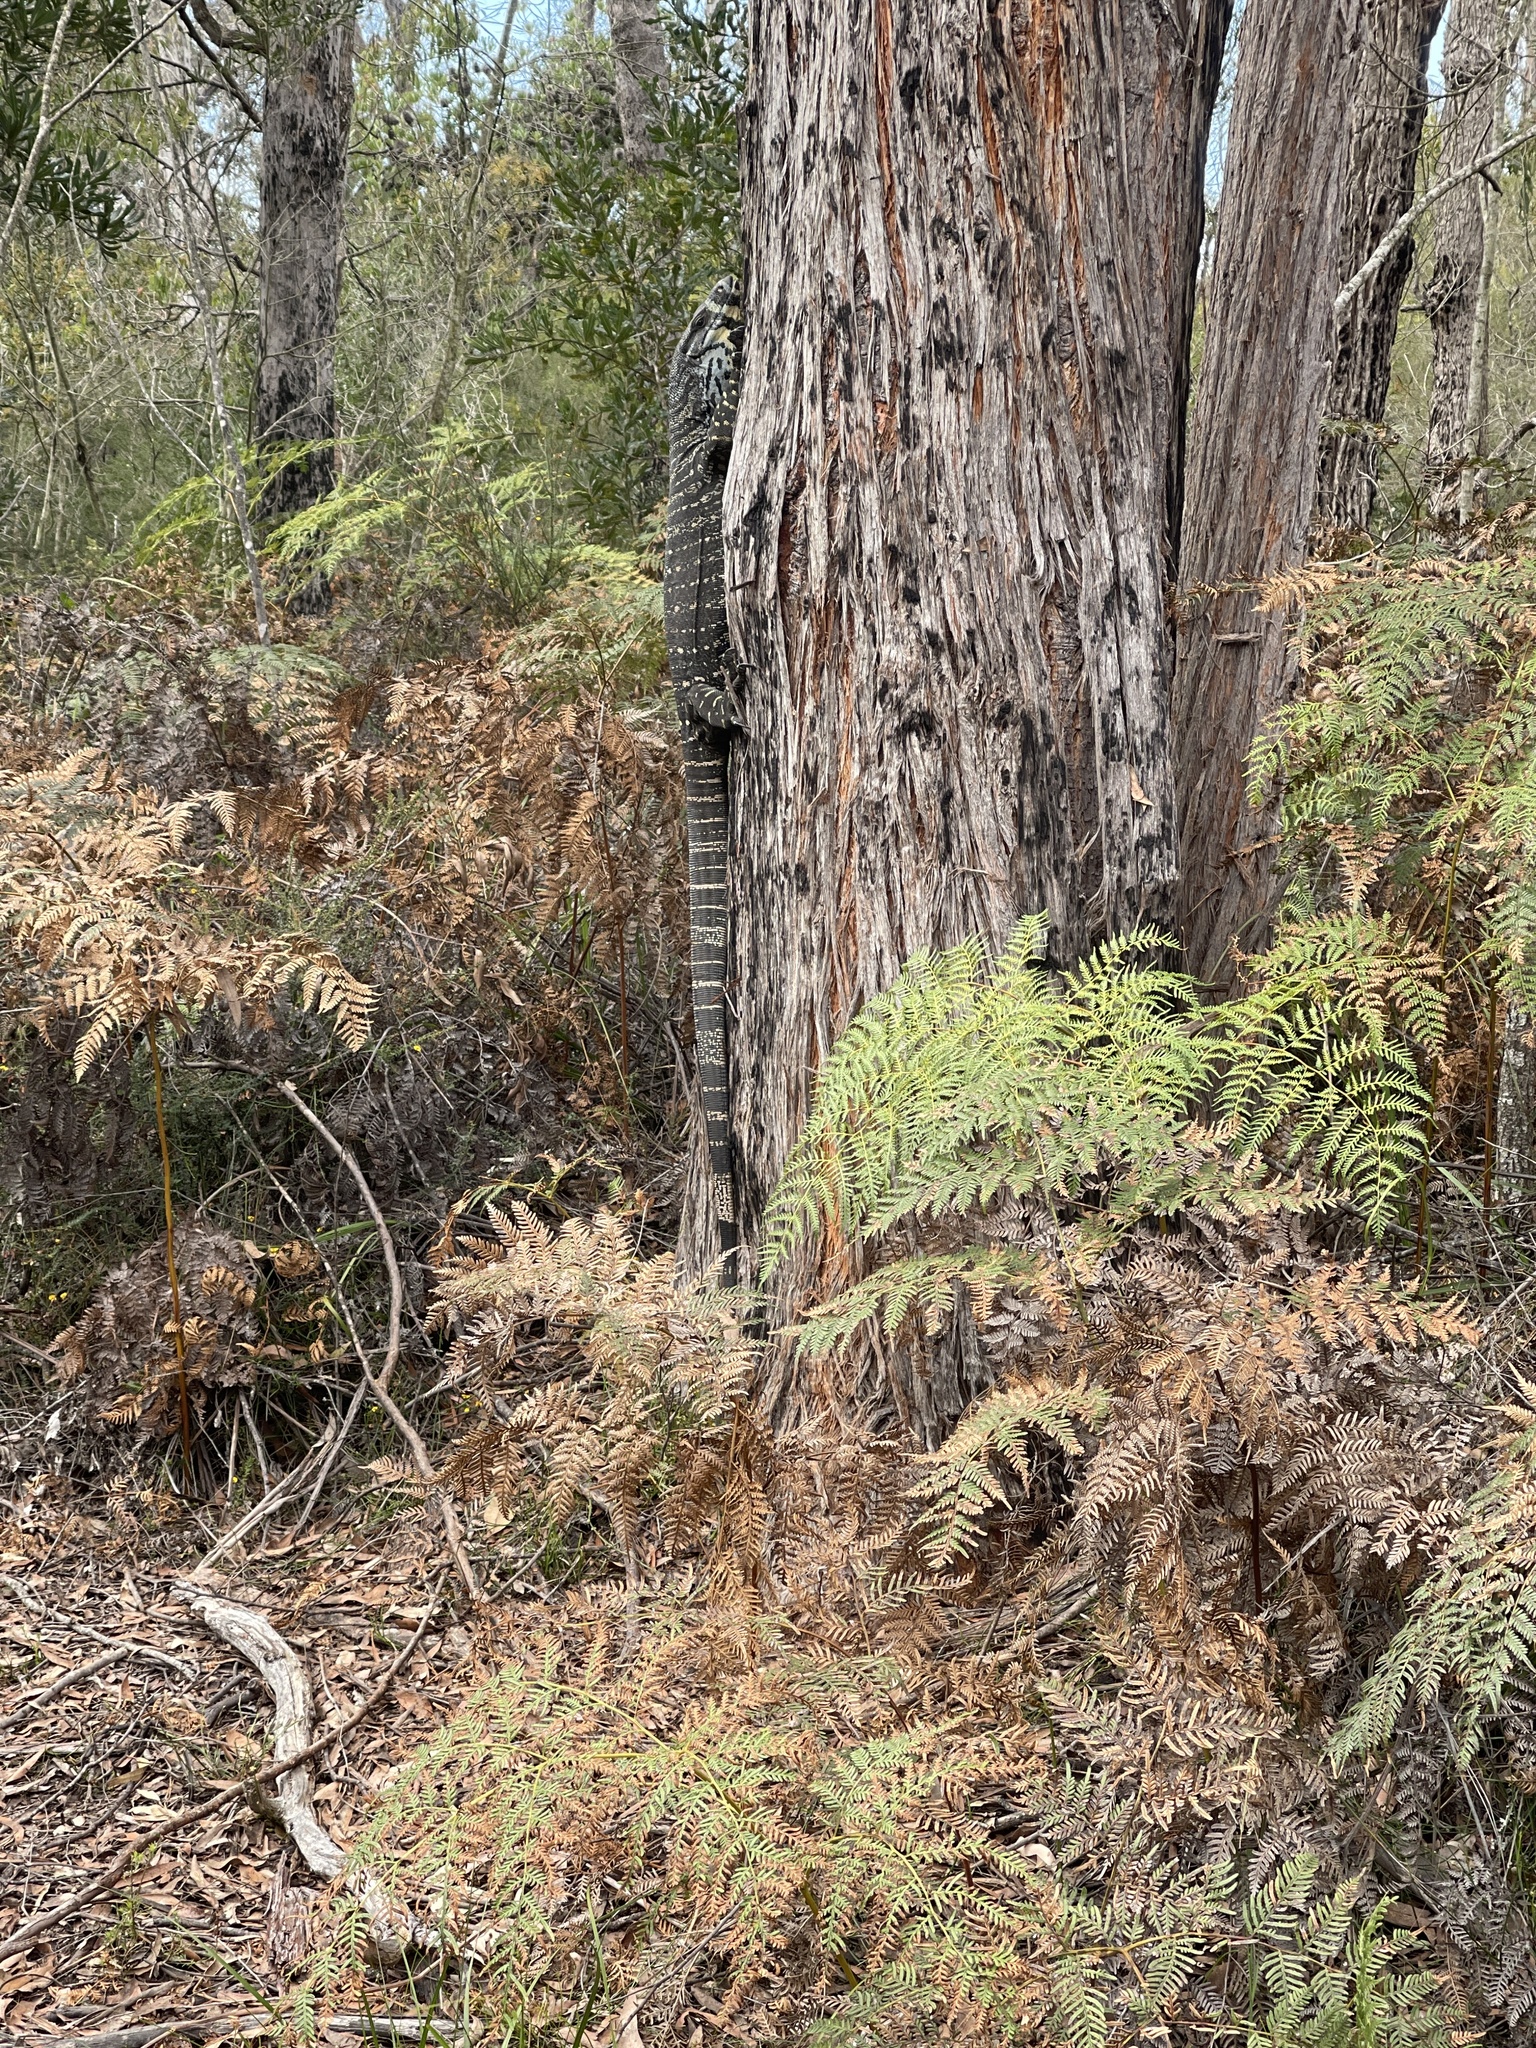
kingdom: Animalia
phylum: Chordata
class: Squamata
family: Varanidae
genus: Varanus
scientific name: Varanus varius
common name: Lace monitor
